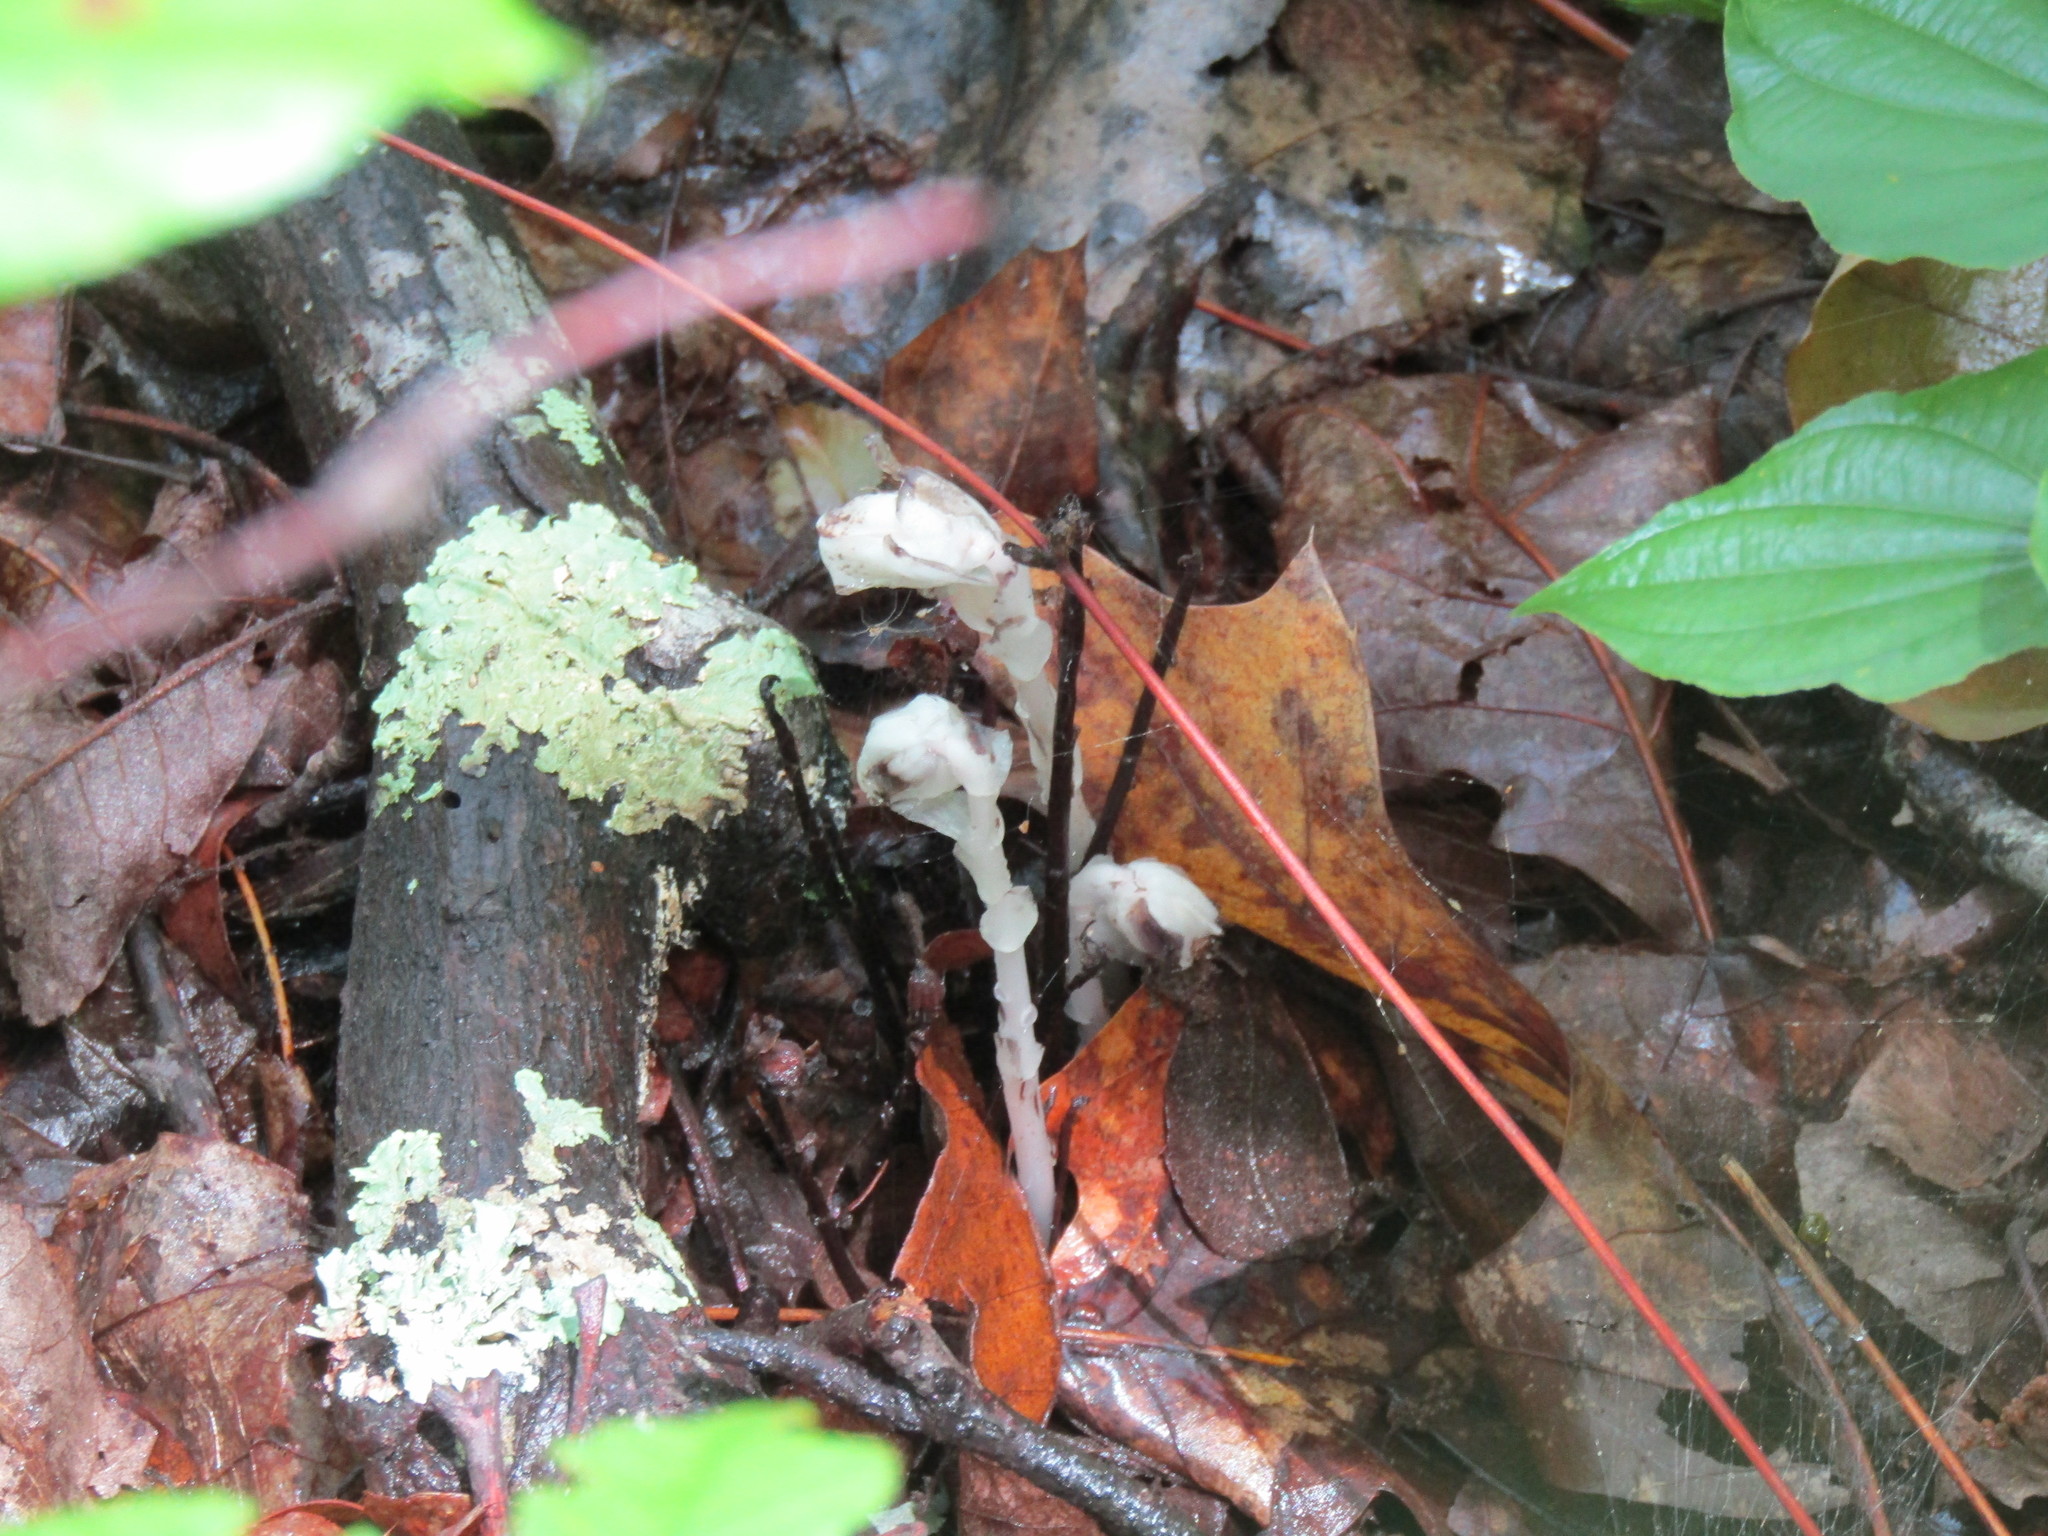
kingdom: Plantae
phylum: Tracheophyta
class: Magnoliopsida
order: Ericales
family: Ericaceae
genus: Monotropa
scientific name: Monotropa uniflora
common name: Convulsion root
